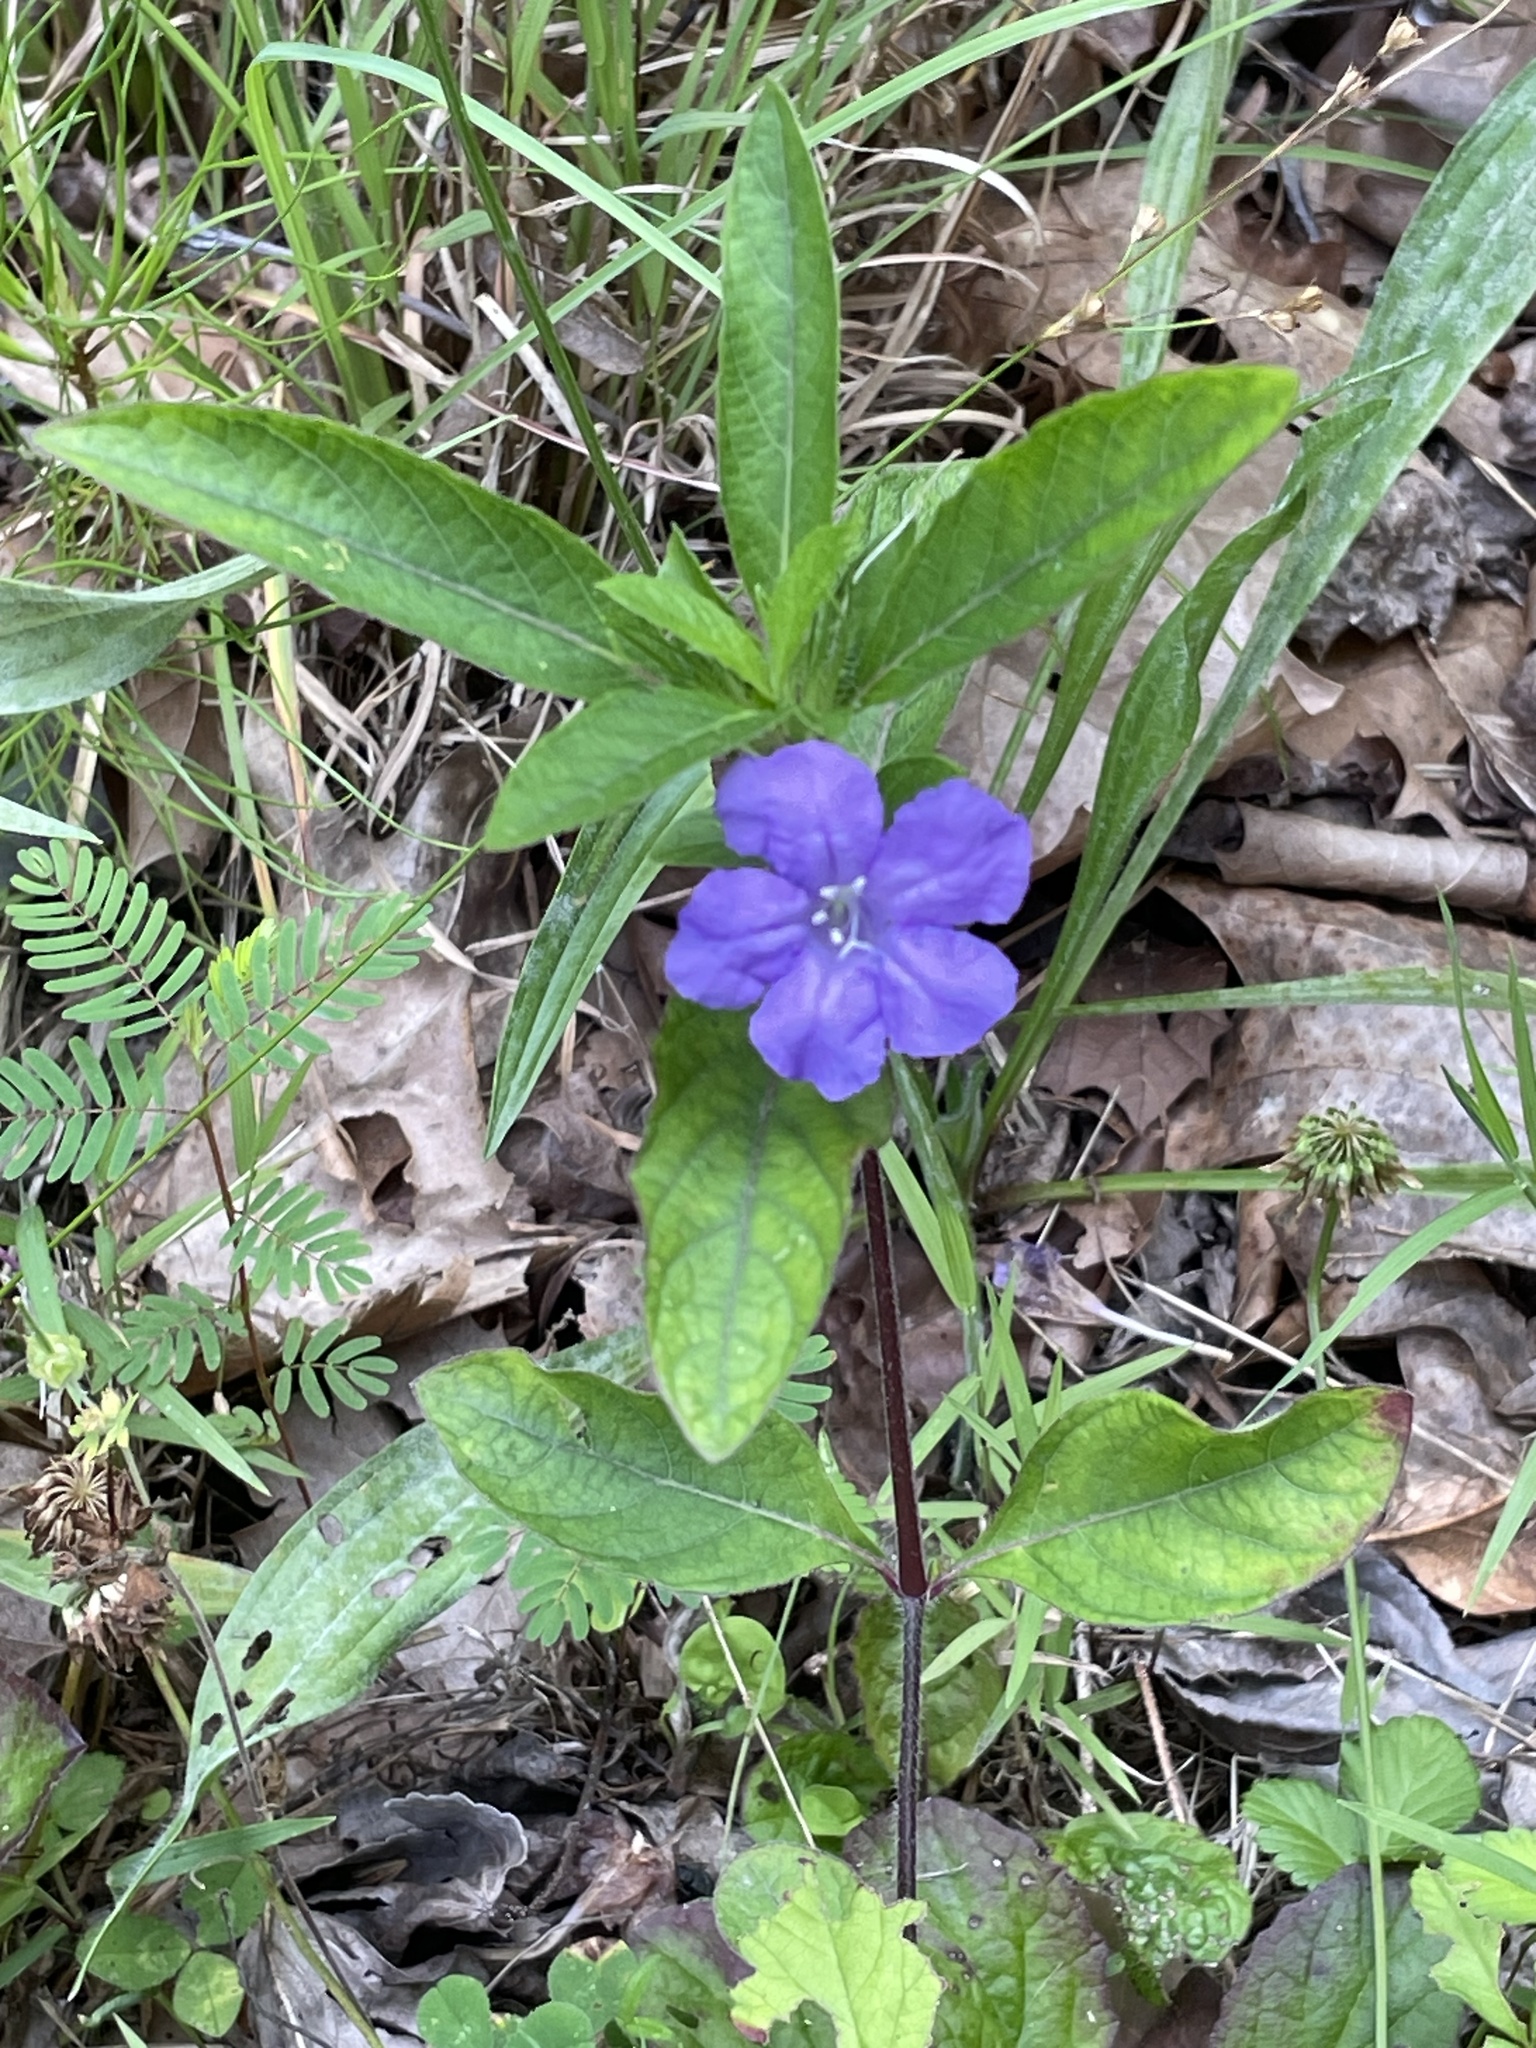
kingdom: Plantae
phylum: Tracheophyta
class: Magnoliopsida
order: Lamiales
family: Acanthaceae
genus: Ruellia
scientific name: Ruellia caroliniensis
